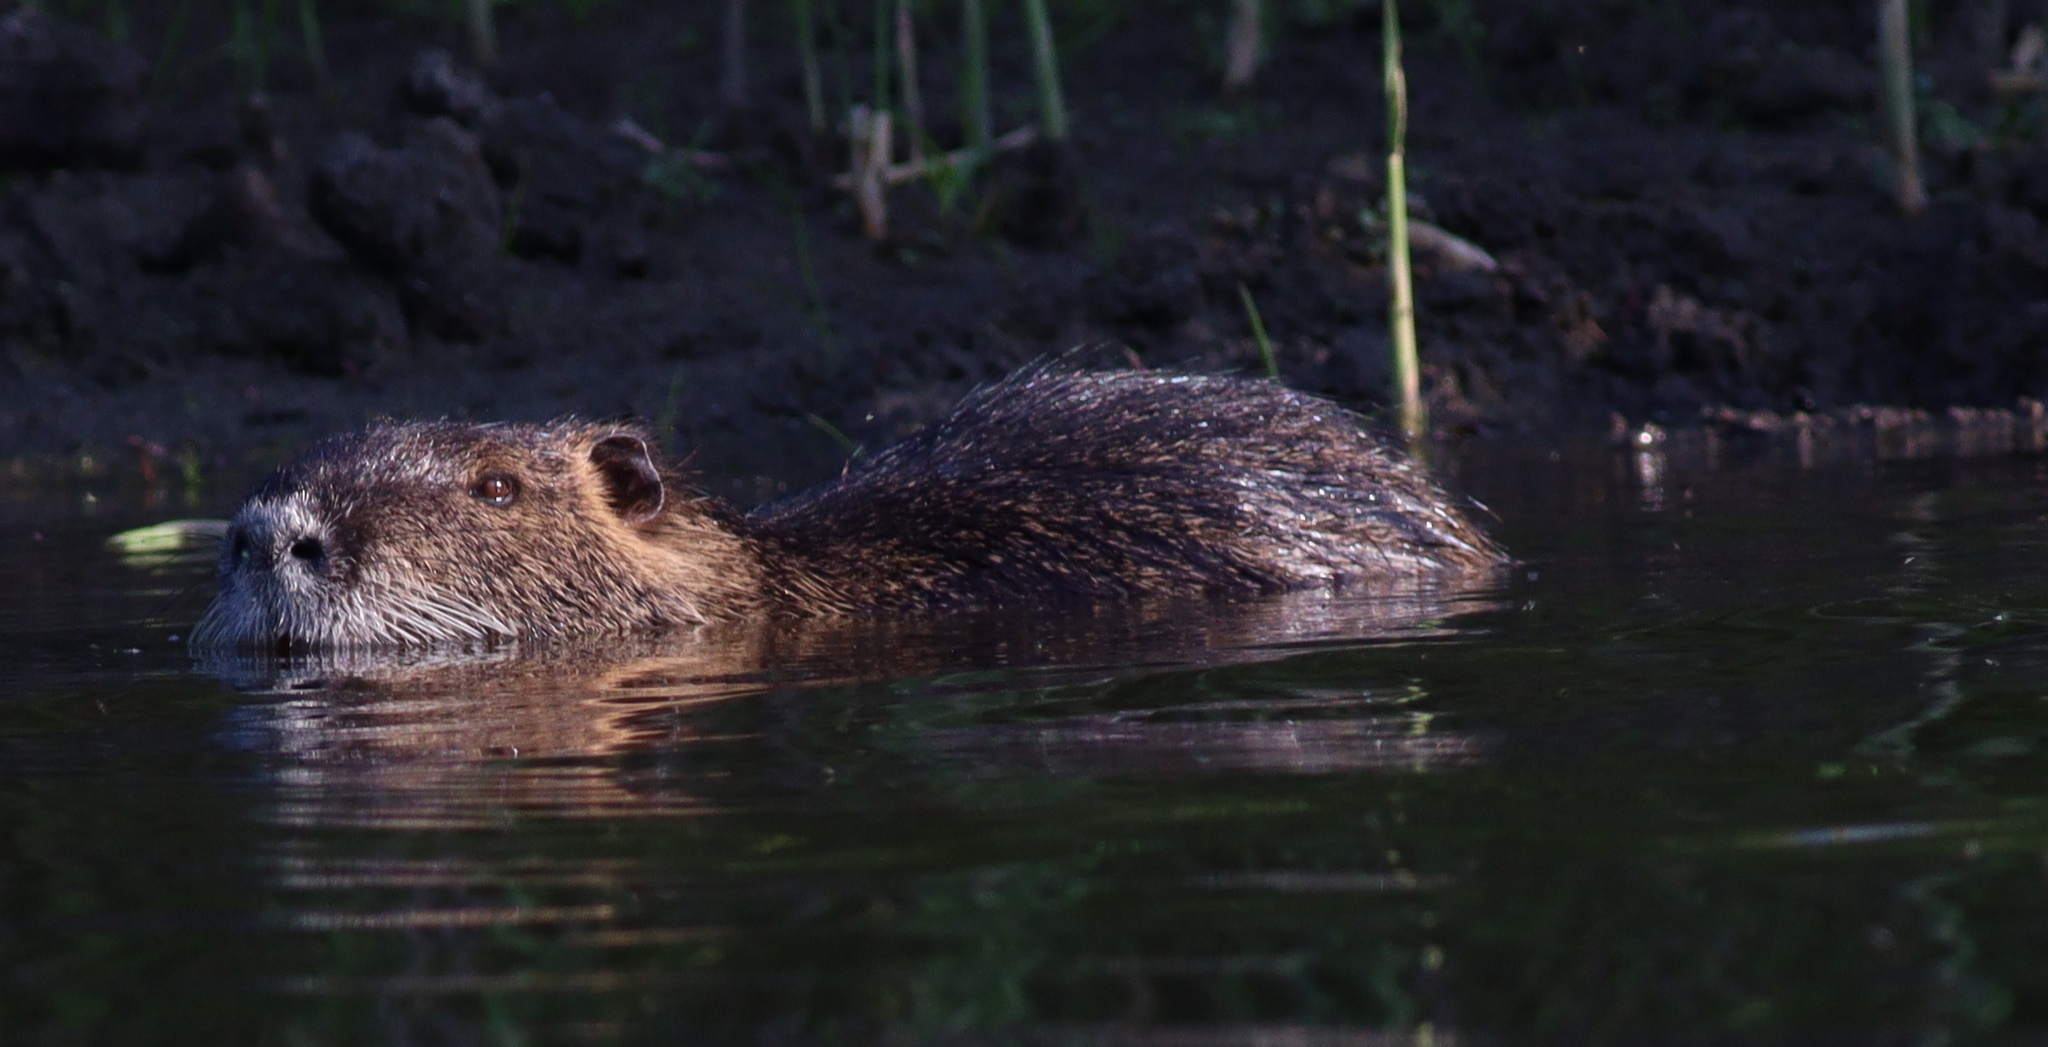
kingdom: Animalia
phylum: Chordata
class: Mammalia
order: Rodentia
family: Myocastoridae
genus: Myocastor
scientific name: Myocastor coypus
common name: Coypu
